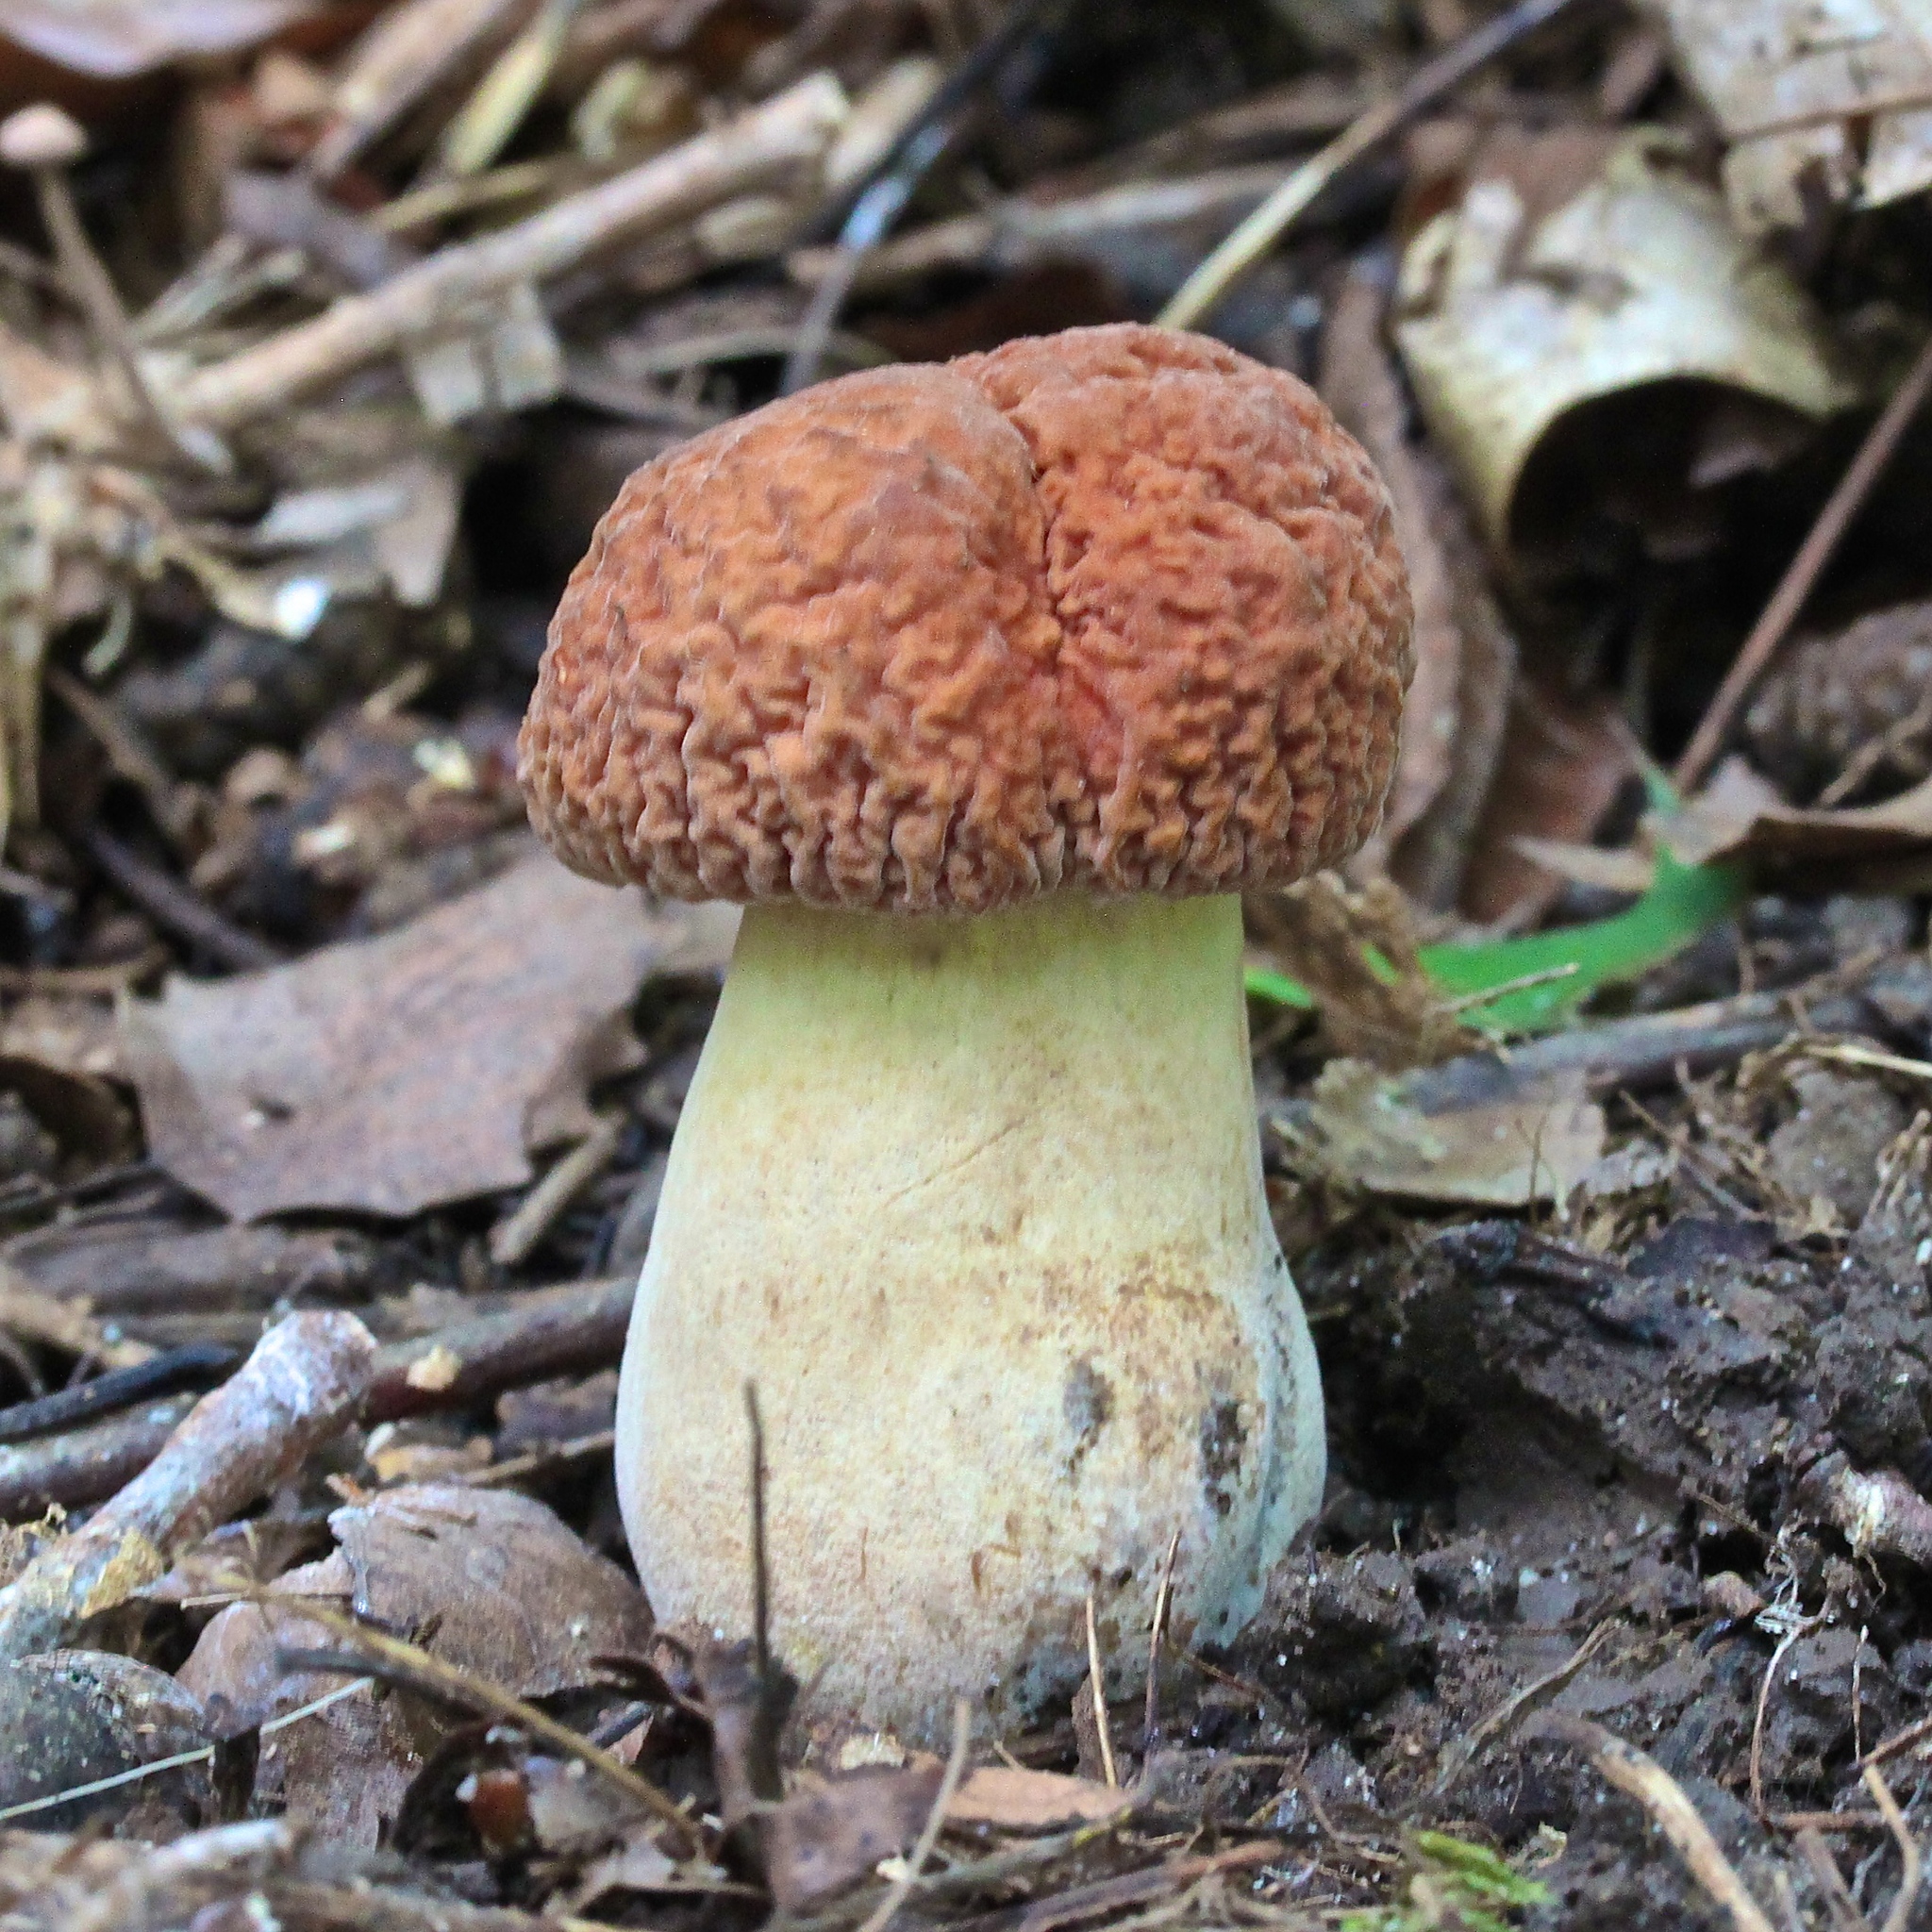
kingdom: Fungi
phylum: Basidiomycota
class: Agaricomycetes
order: Boletales
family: Boletaceae
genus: Hemileccinum
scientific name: Hemileccinum hortonii
